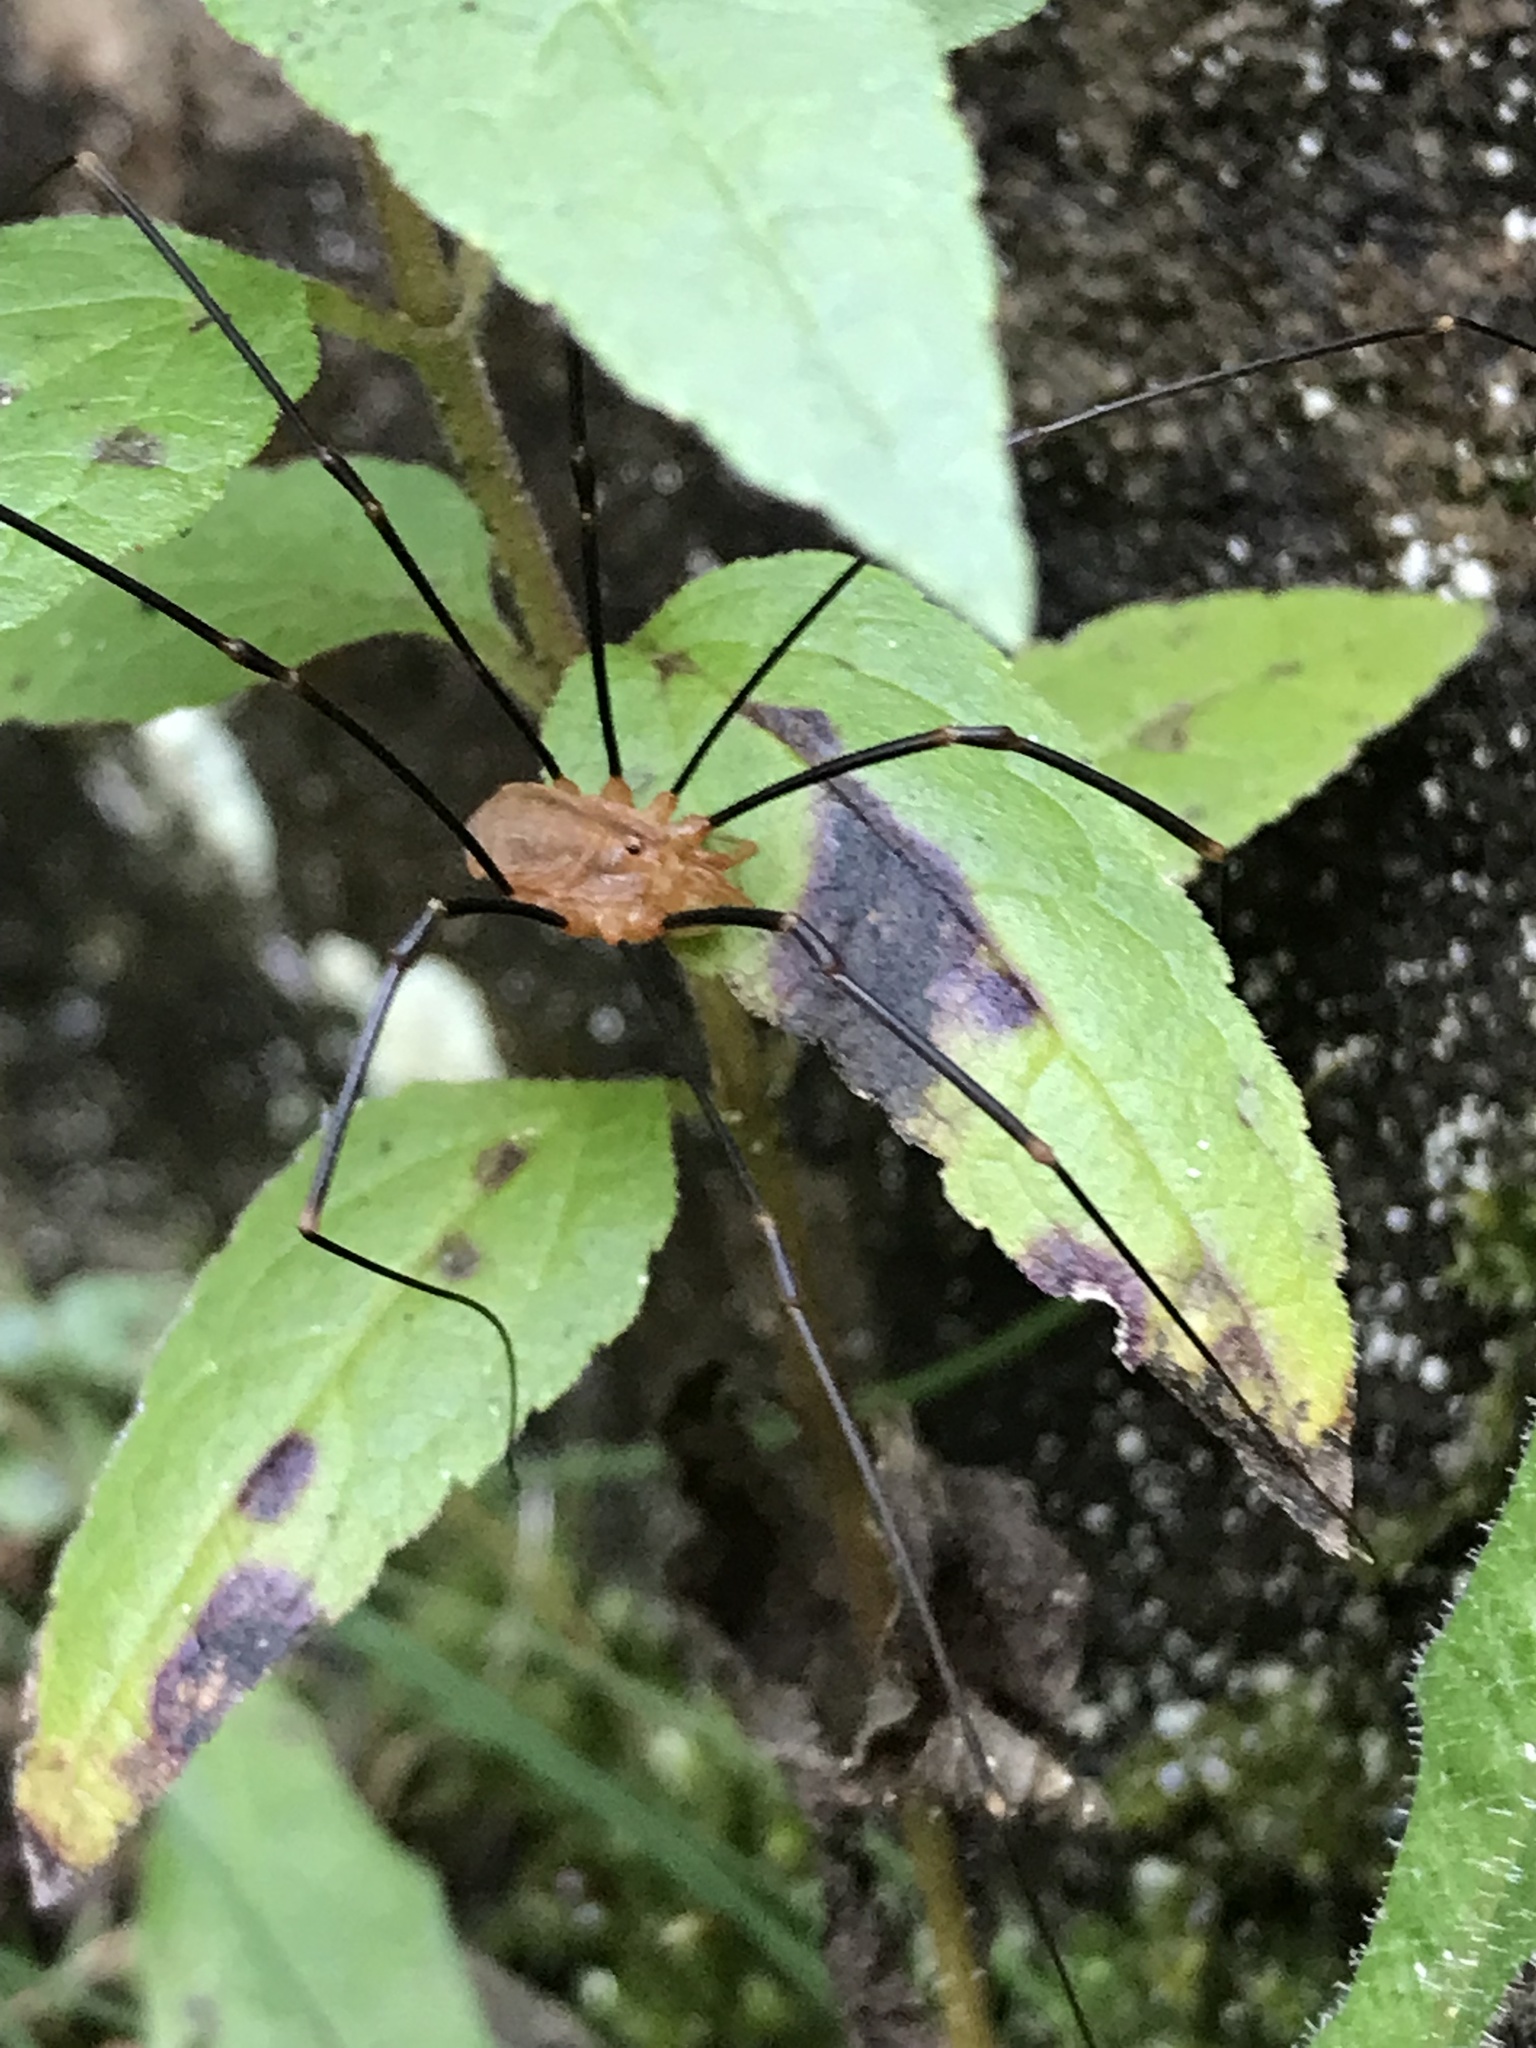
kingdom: Animalia
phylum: Arthropoda
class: Arachnida
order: Opiliones
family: Phalangiidae
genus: Opilio
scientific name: Opilio canestrinii
